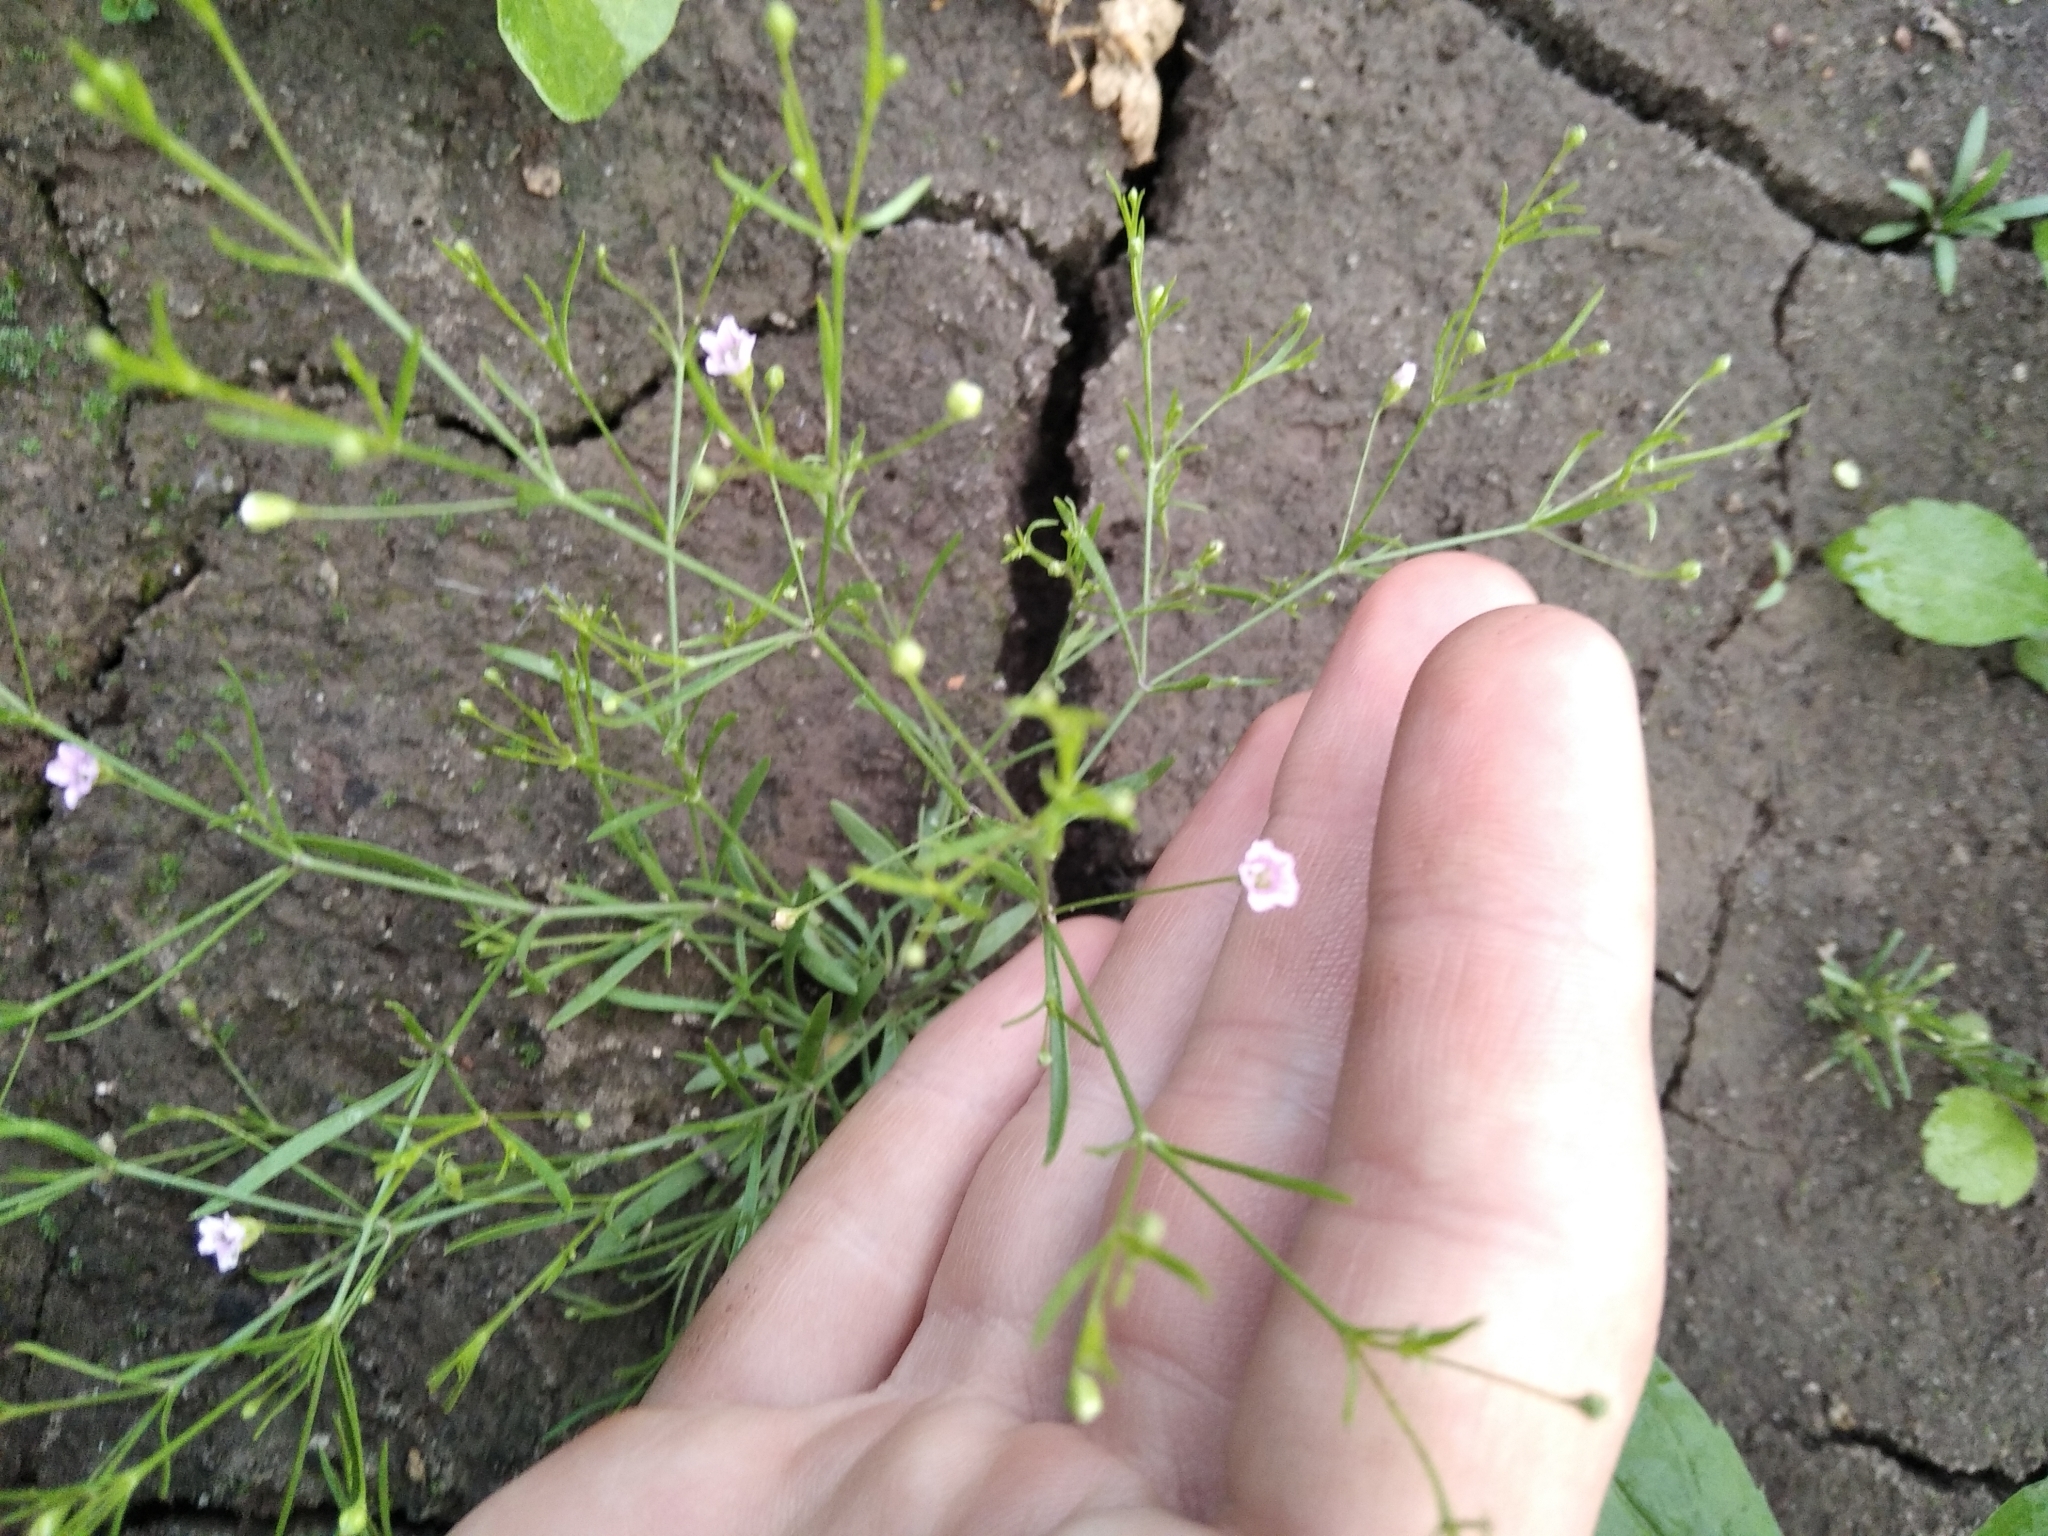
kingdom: Plantae
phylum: Tracheophyta
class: Magnoliopsida
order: Caryophyllales
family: Caryophyllaceae
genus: Psammophiliella
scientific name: Psammophiliella muralis
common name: Cushion baby's-breath
